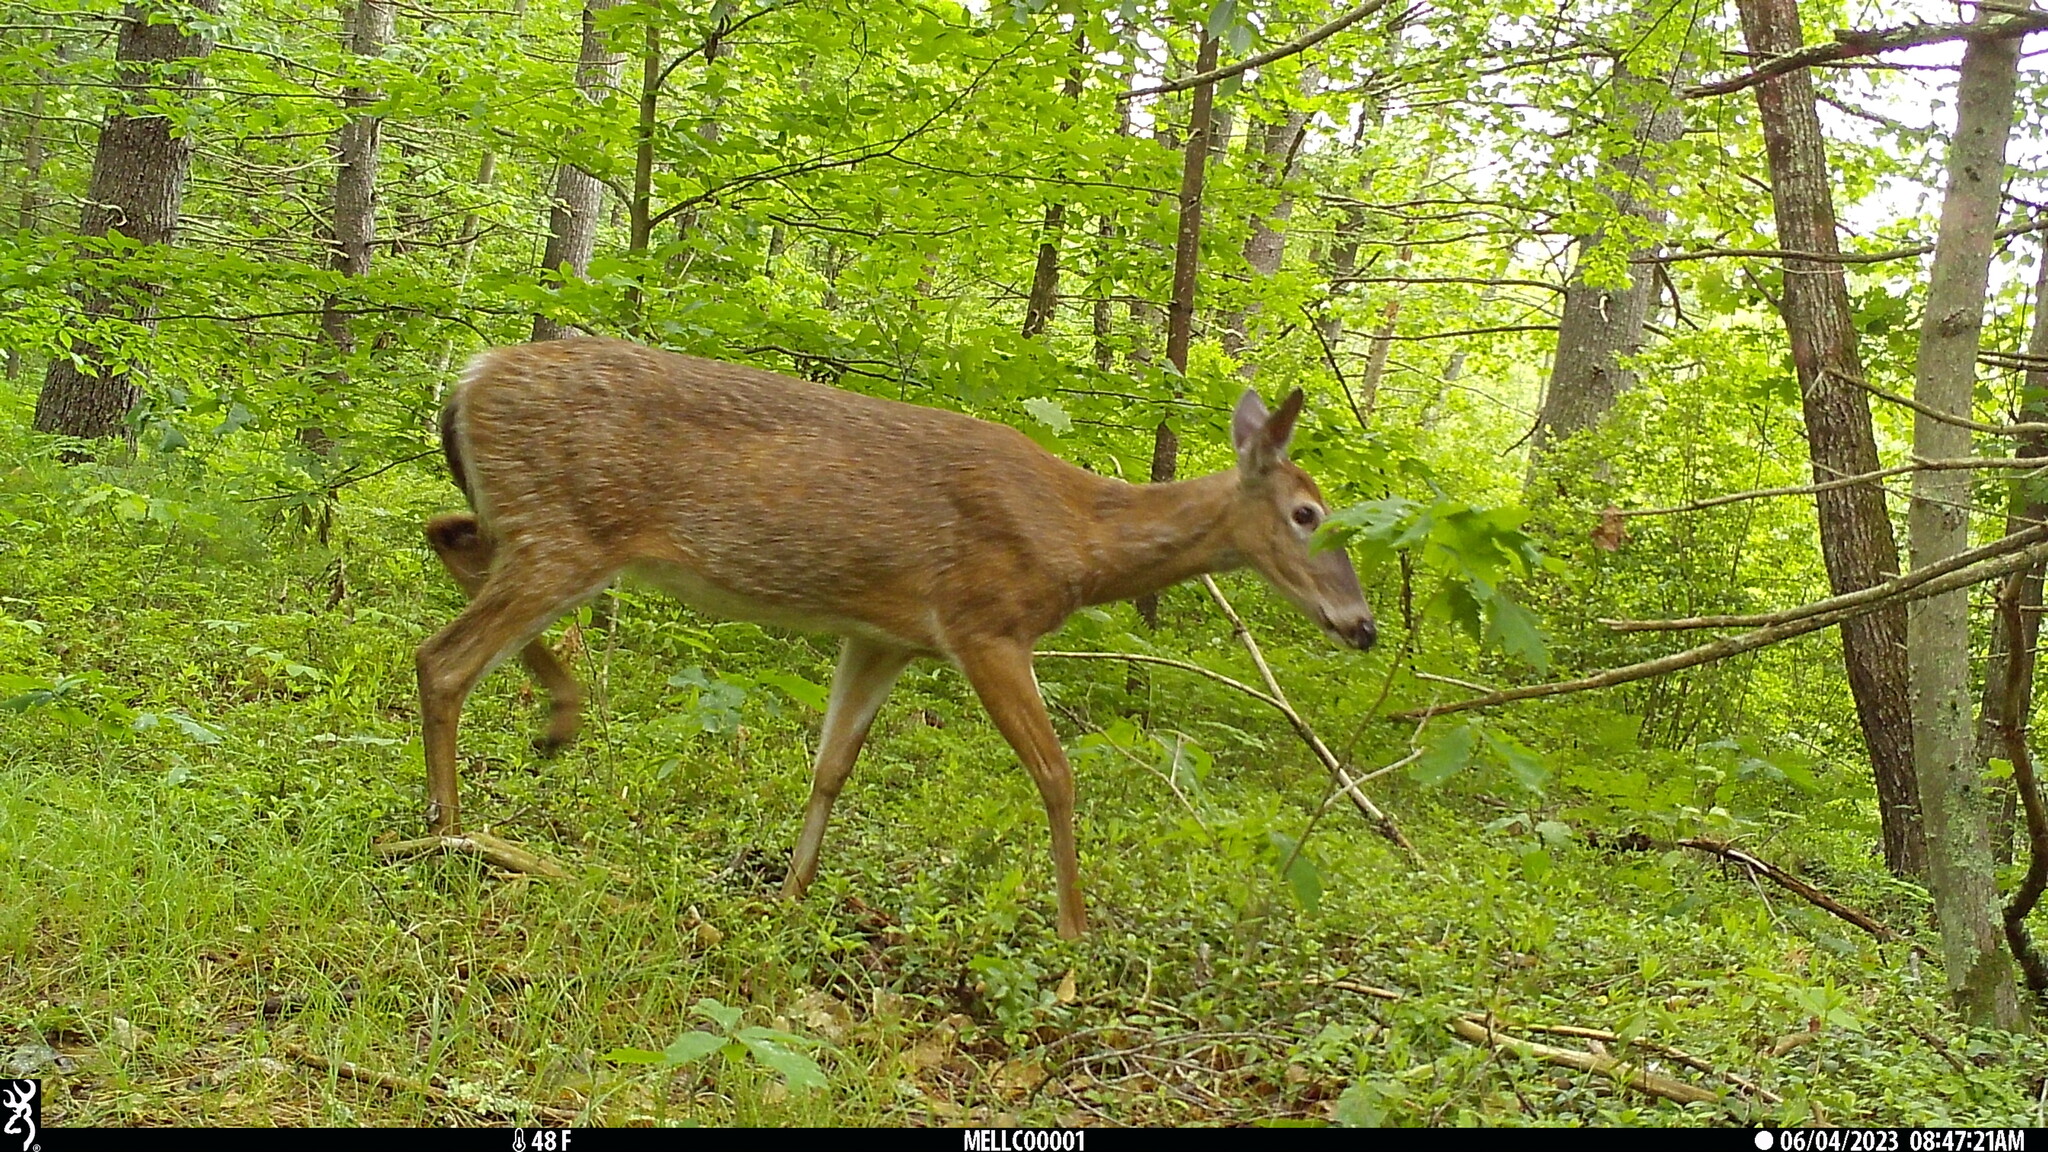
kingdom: Animalia
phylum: Chordata
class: Mammalia
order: Artiodactyla
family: Cervidae
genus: Odocoileus
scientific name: Odocoileus virginianus
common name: White-tailed deer
